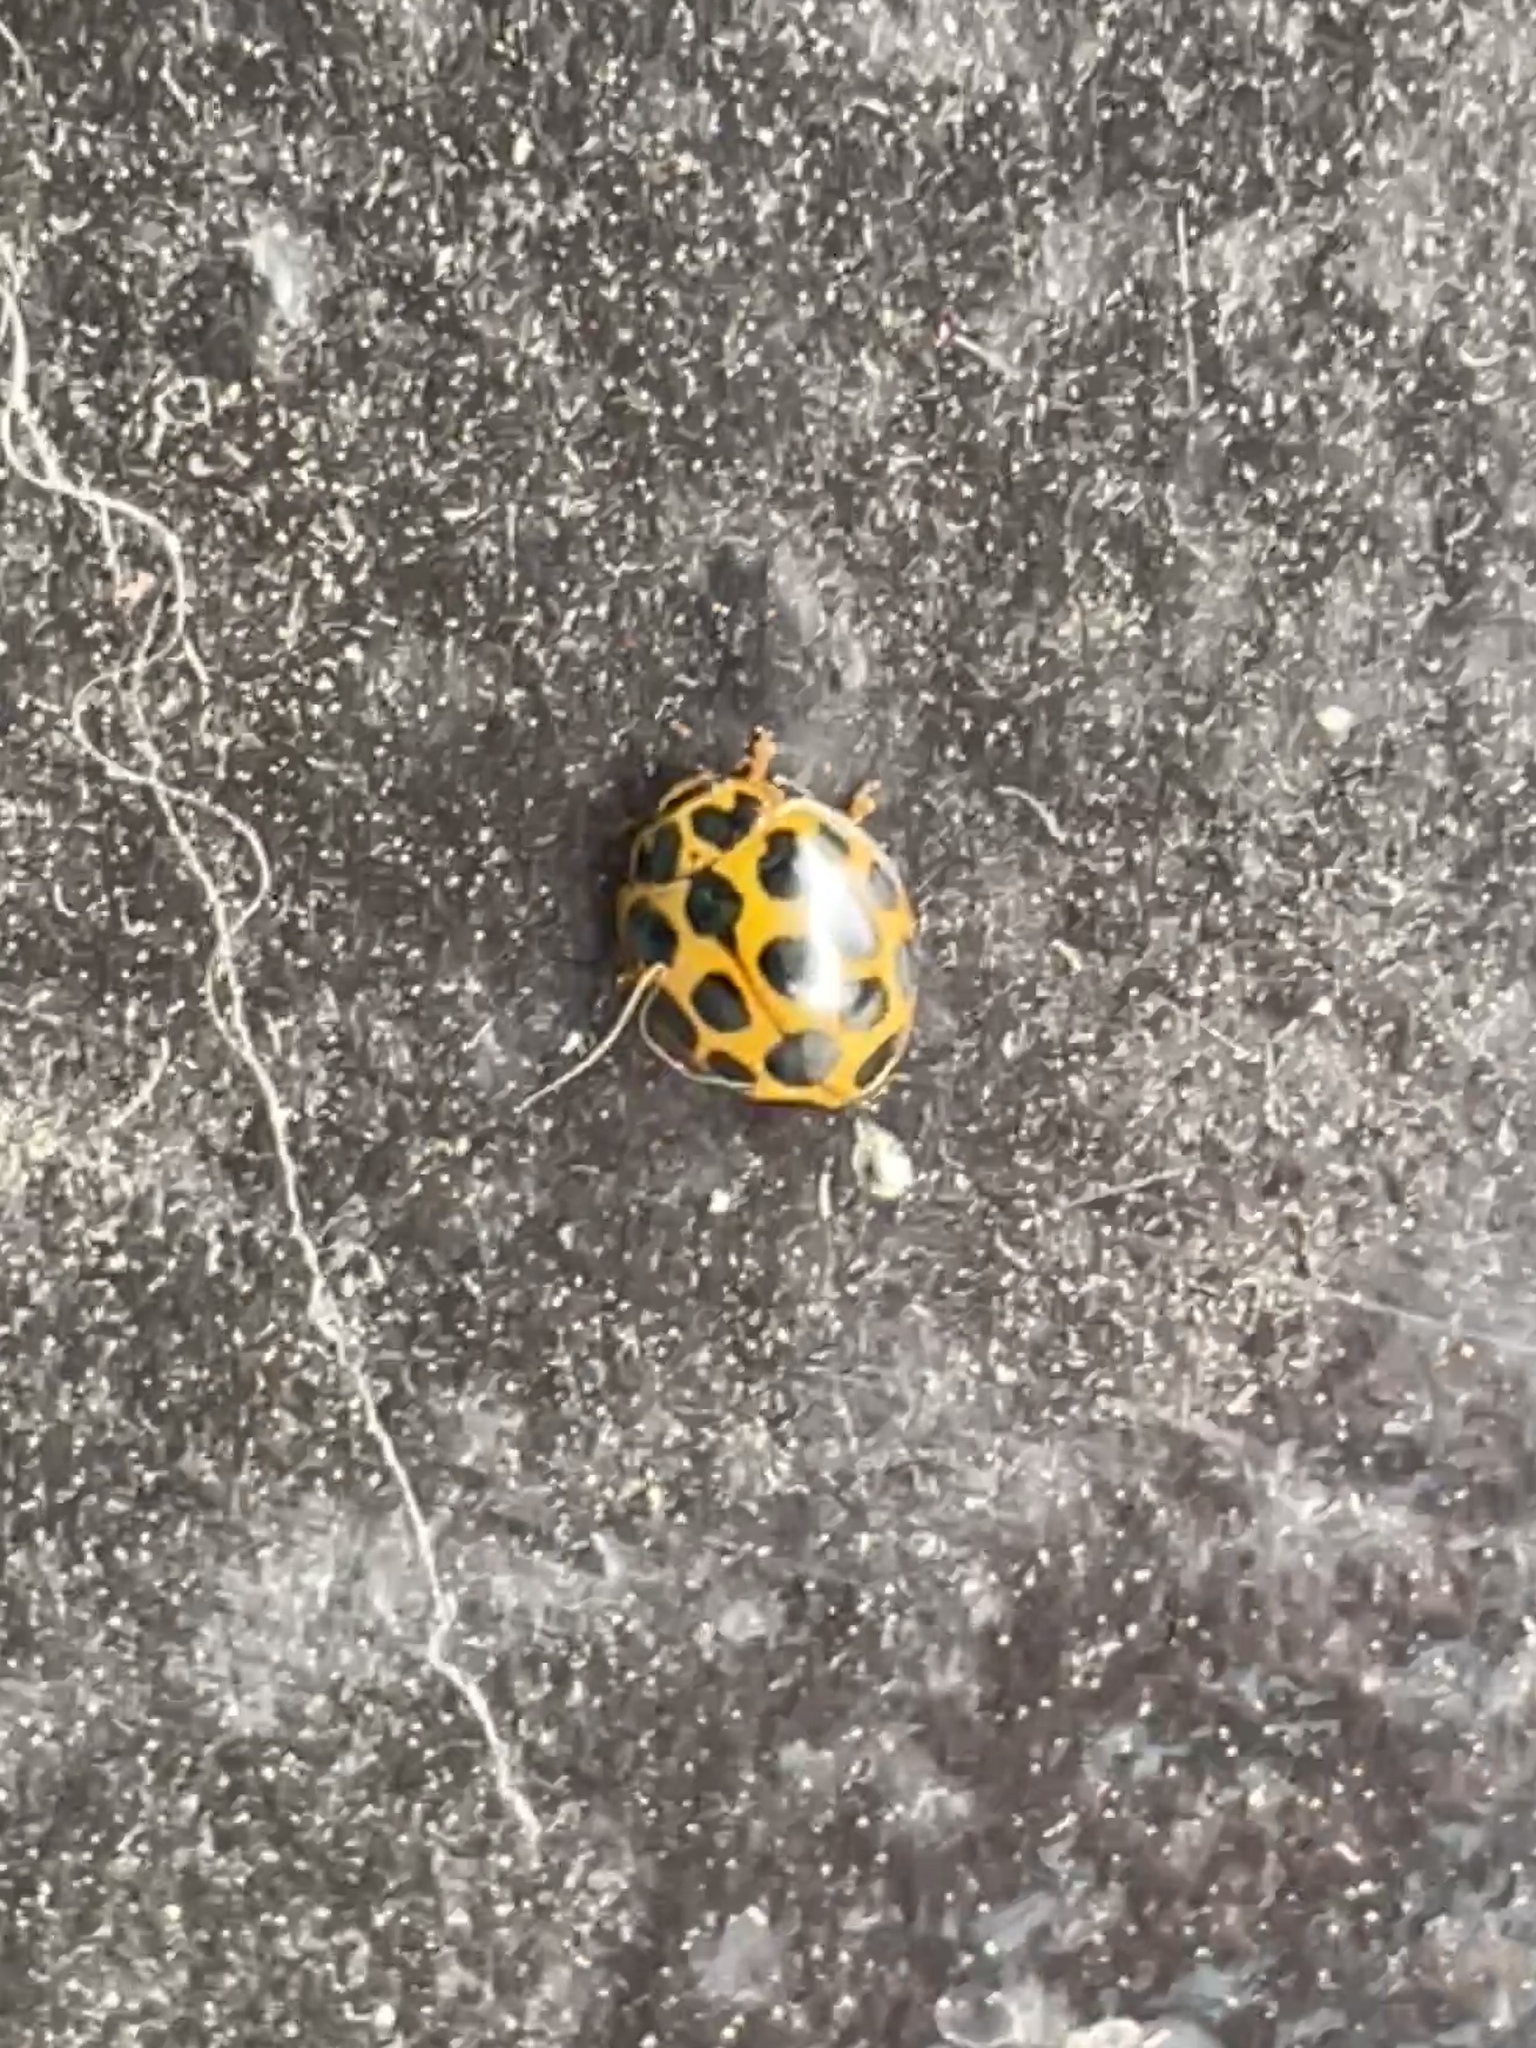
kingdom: Animalia
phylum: Arthropoda
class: Insecta
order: Coleoptera
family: Coccinellidae
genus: Harmonia
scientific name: Harmonia conformis
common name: Common spotted ladybird beetle
